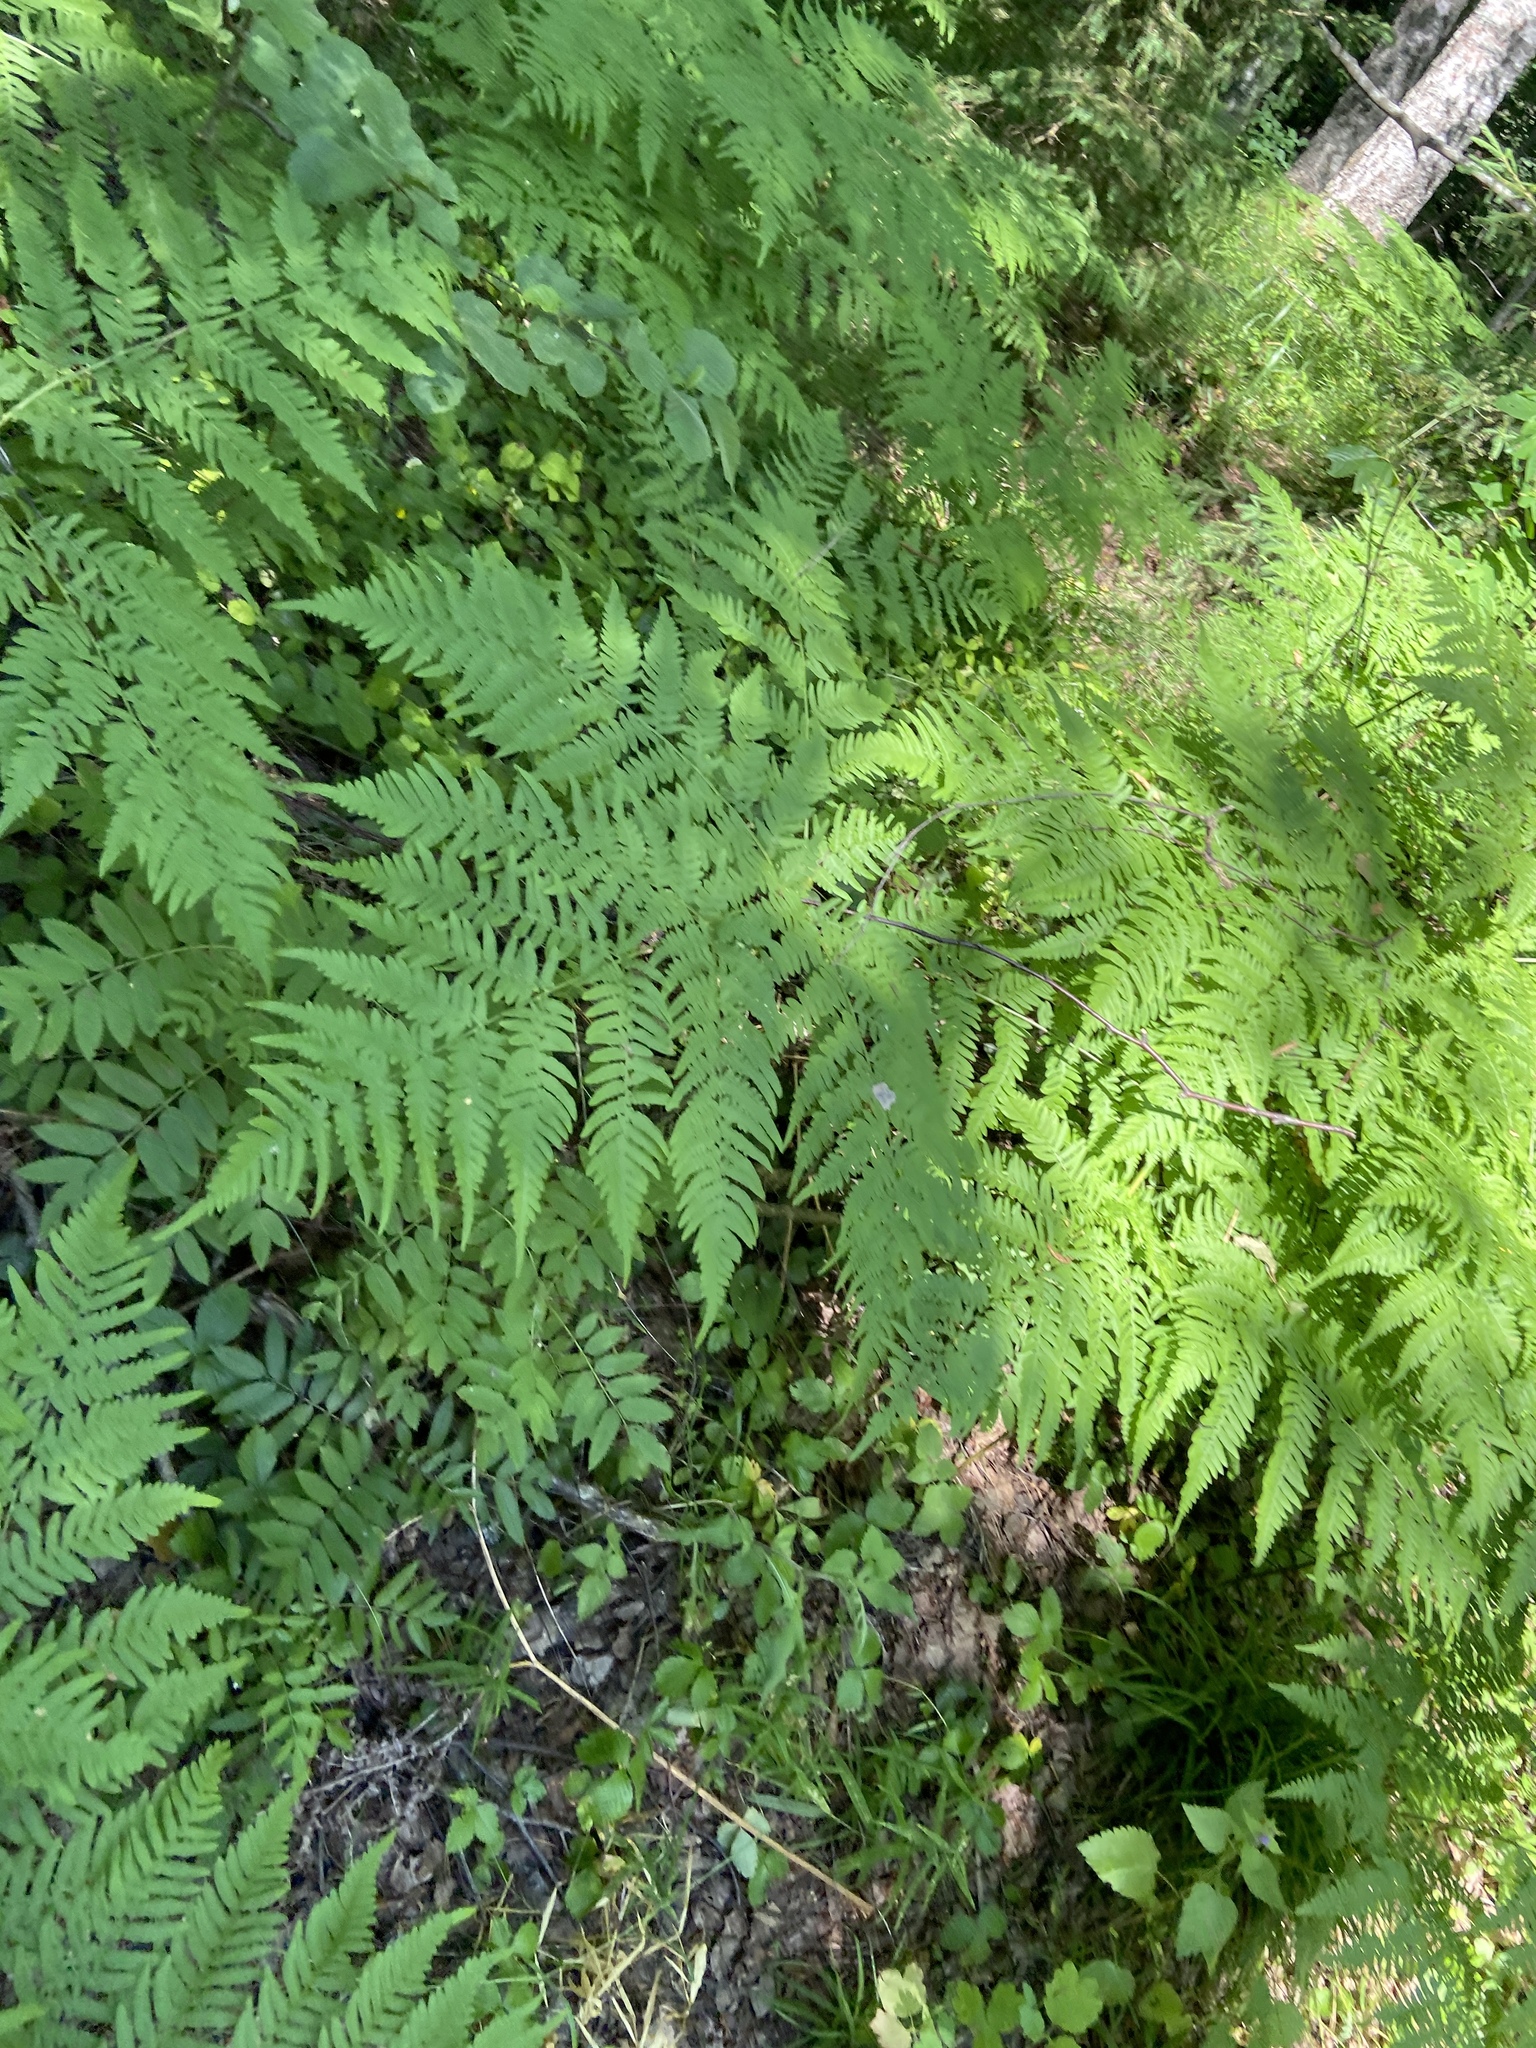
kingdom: Plantae
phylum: Tracheophyta
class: Polypodiopsida
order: Polypodiales
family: Dennstaedtiaceae
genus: Pteridium
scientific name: Pteridium aquilinum
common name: Bracken
